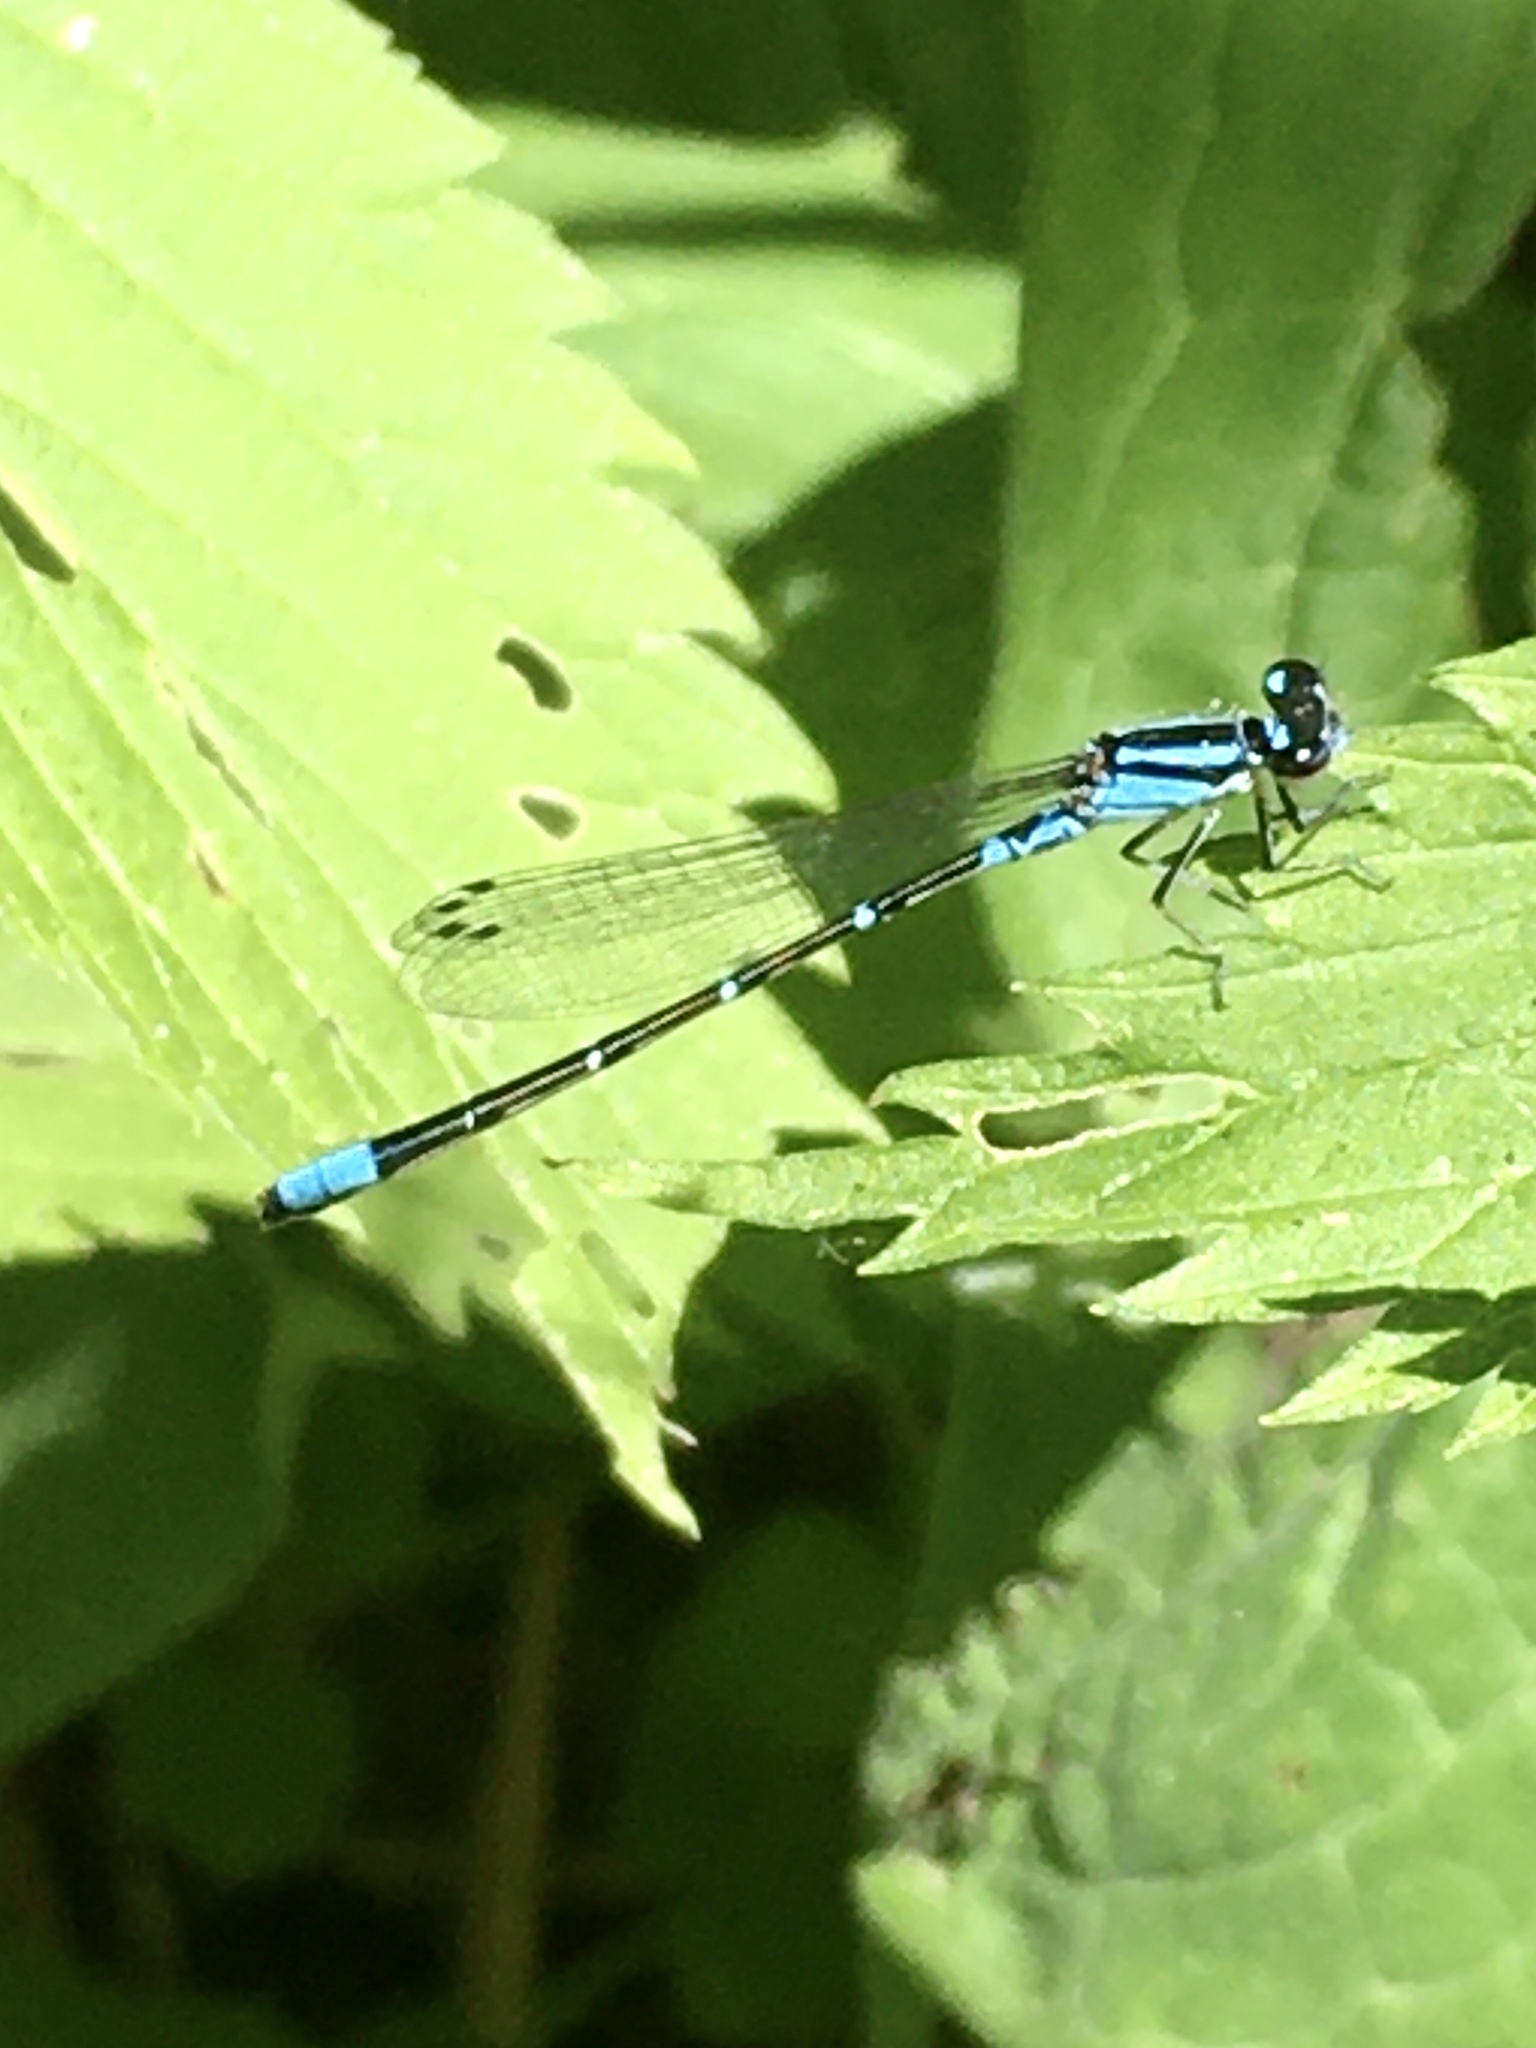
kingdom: Animalia
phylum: Arthropoda
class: Insecta
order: Odonata
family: Coenagrionidae
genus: Enallagma
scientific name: Enallagma geminatum
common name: Skimming bluet
